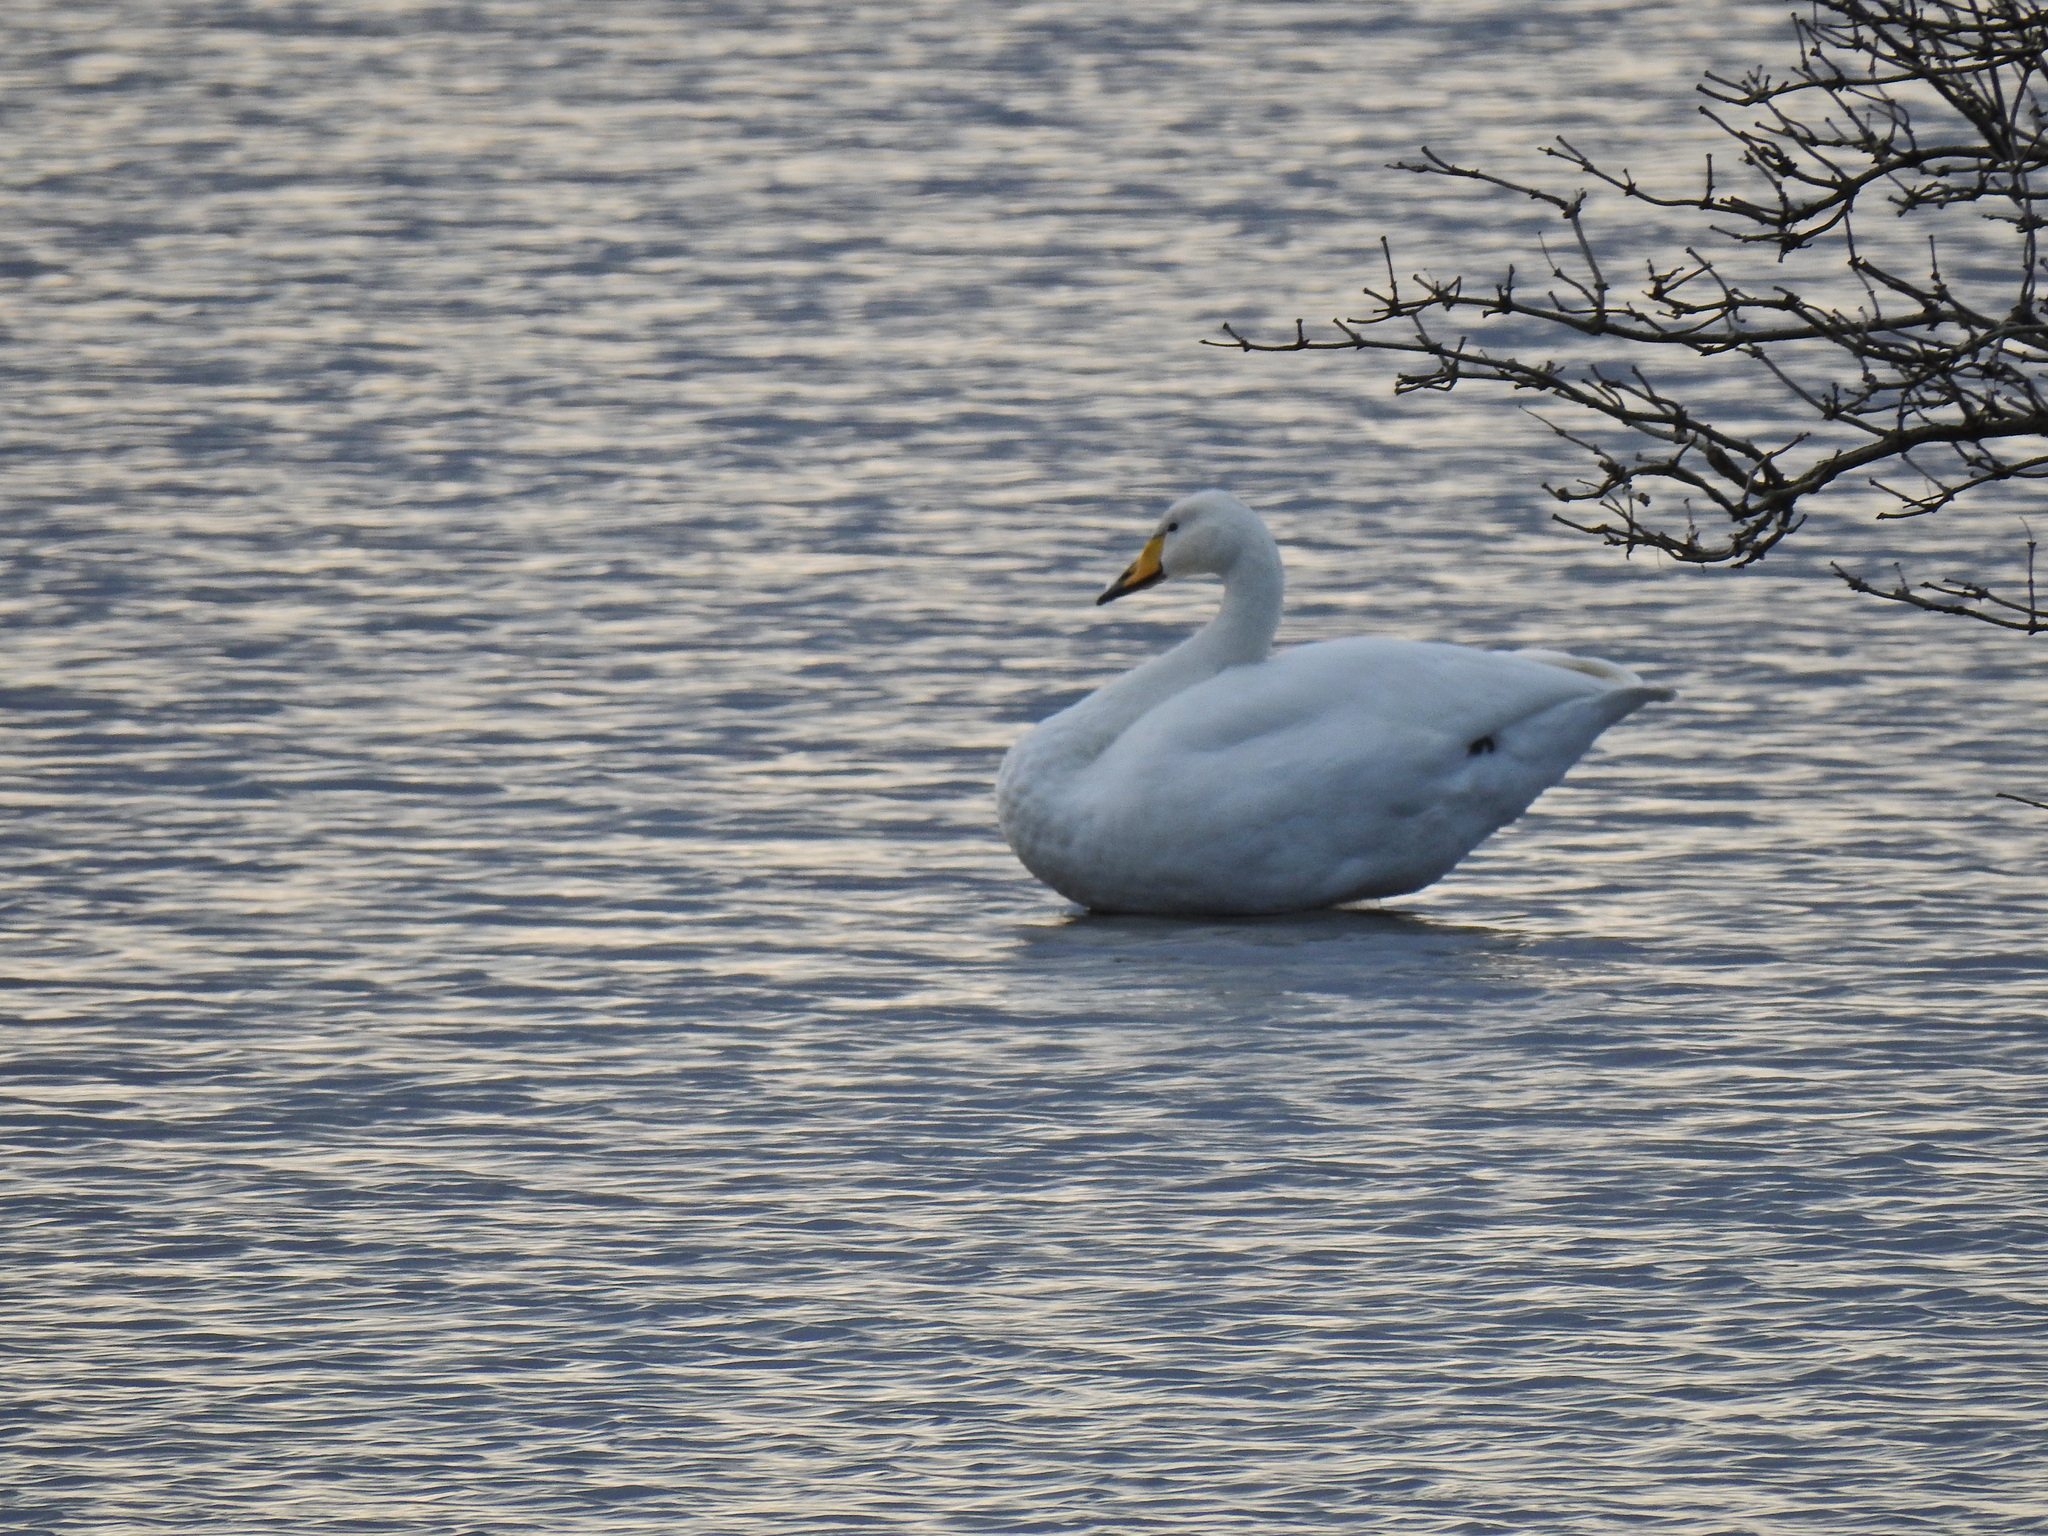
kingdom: Animalia
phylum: Chordata
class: Aves
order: Anseriformes
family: Anatidae
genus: Cygnus
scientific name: Cygnus cygnus
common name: Whooper swan
